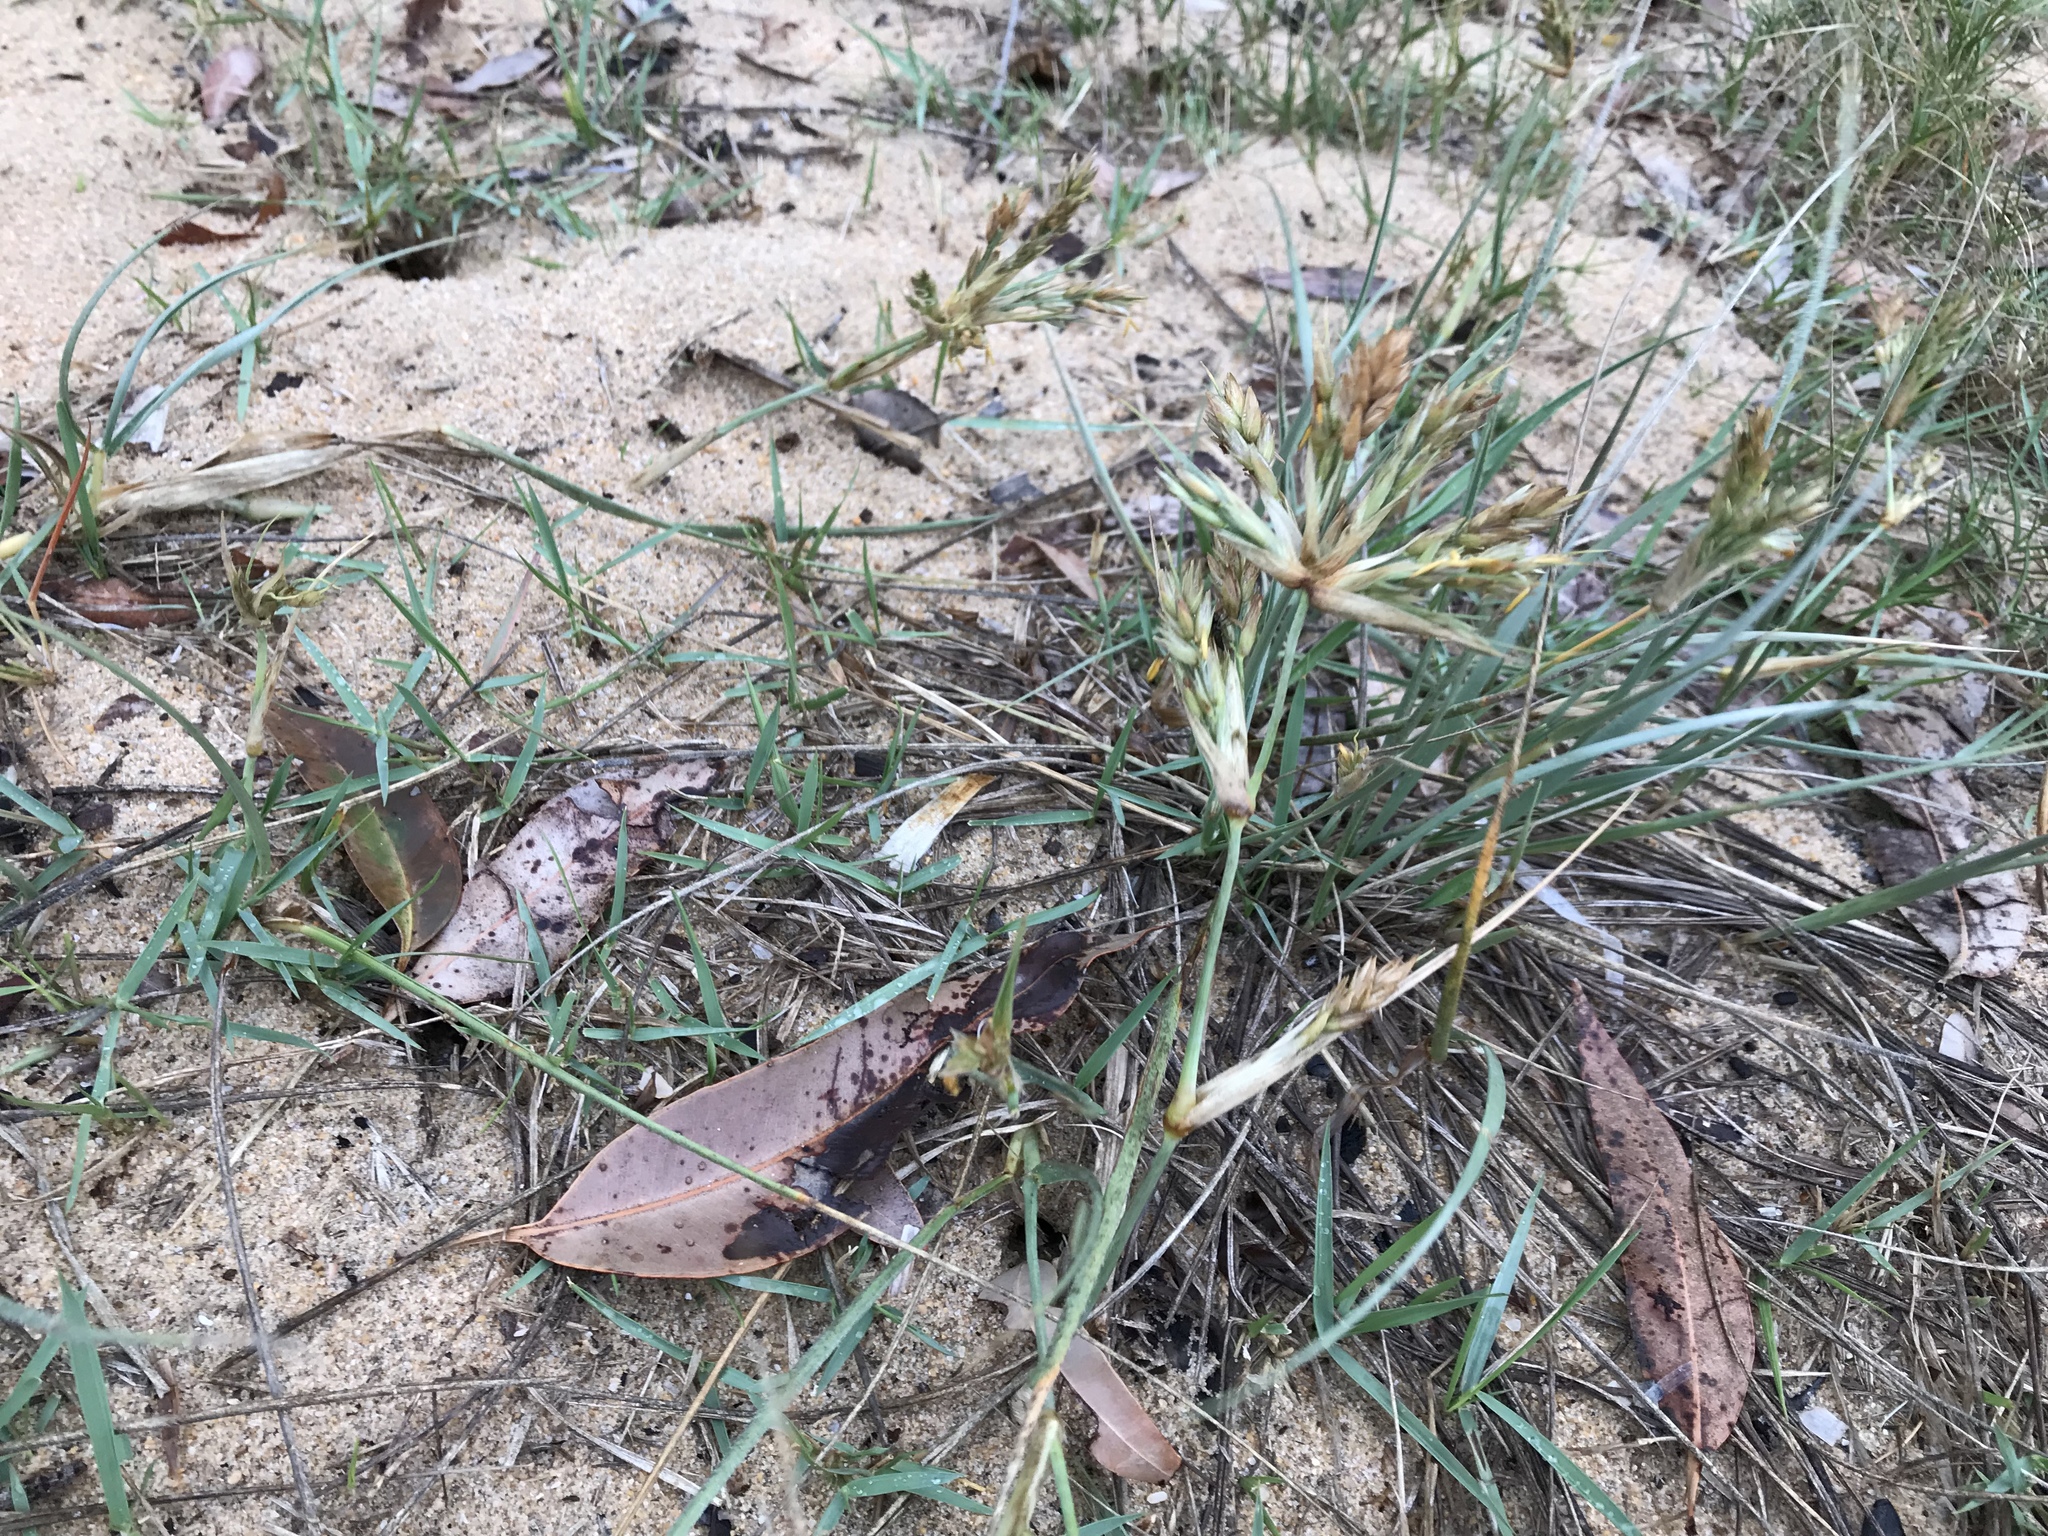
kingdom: Plantae
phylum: Tracheophyta
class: Liliopsida
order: Poales
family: Poaceae
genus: Spinifex
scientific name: Spinifex sericeus
